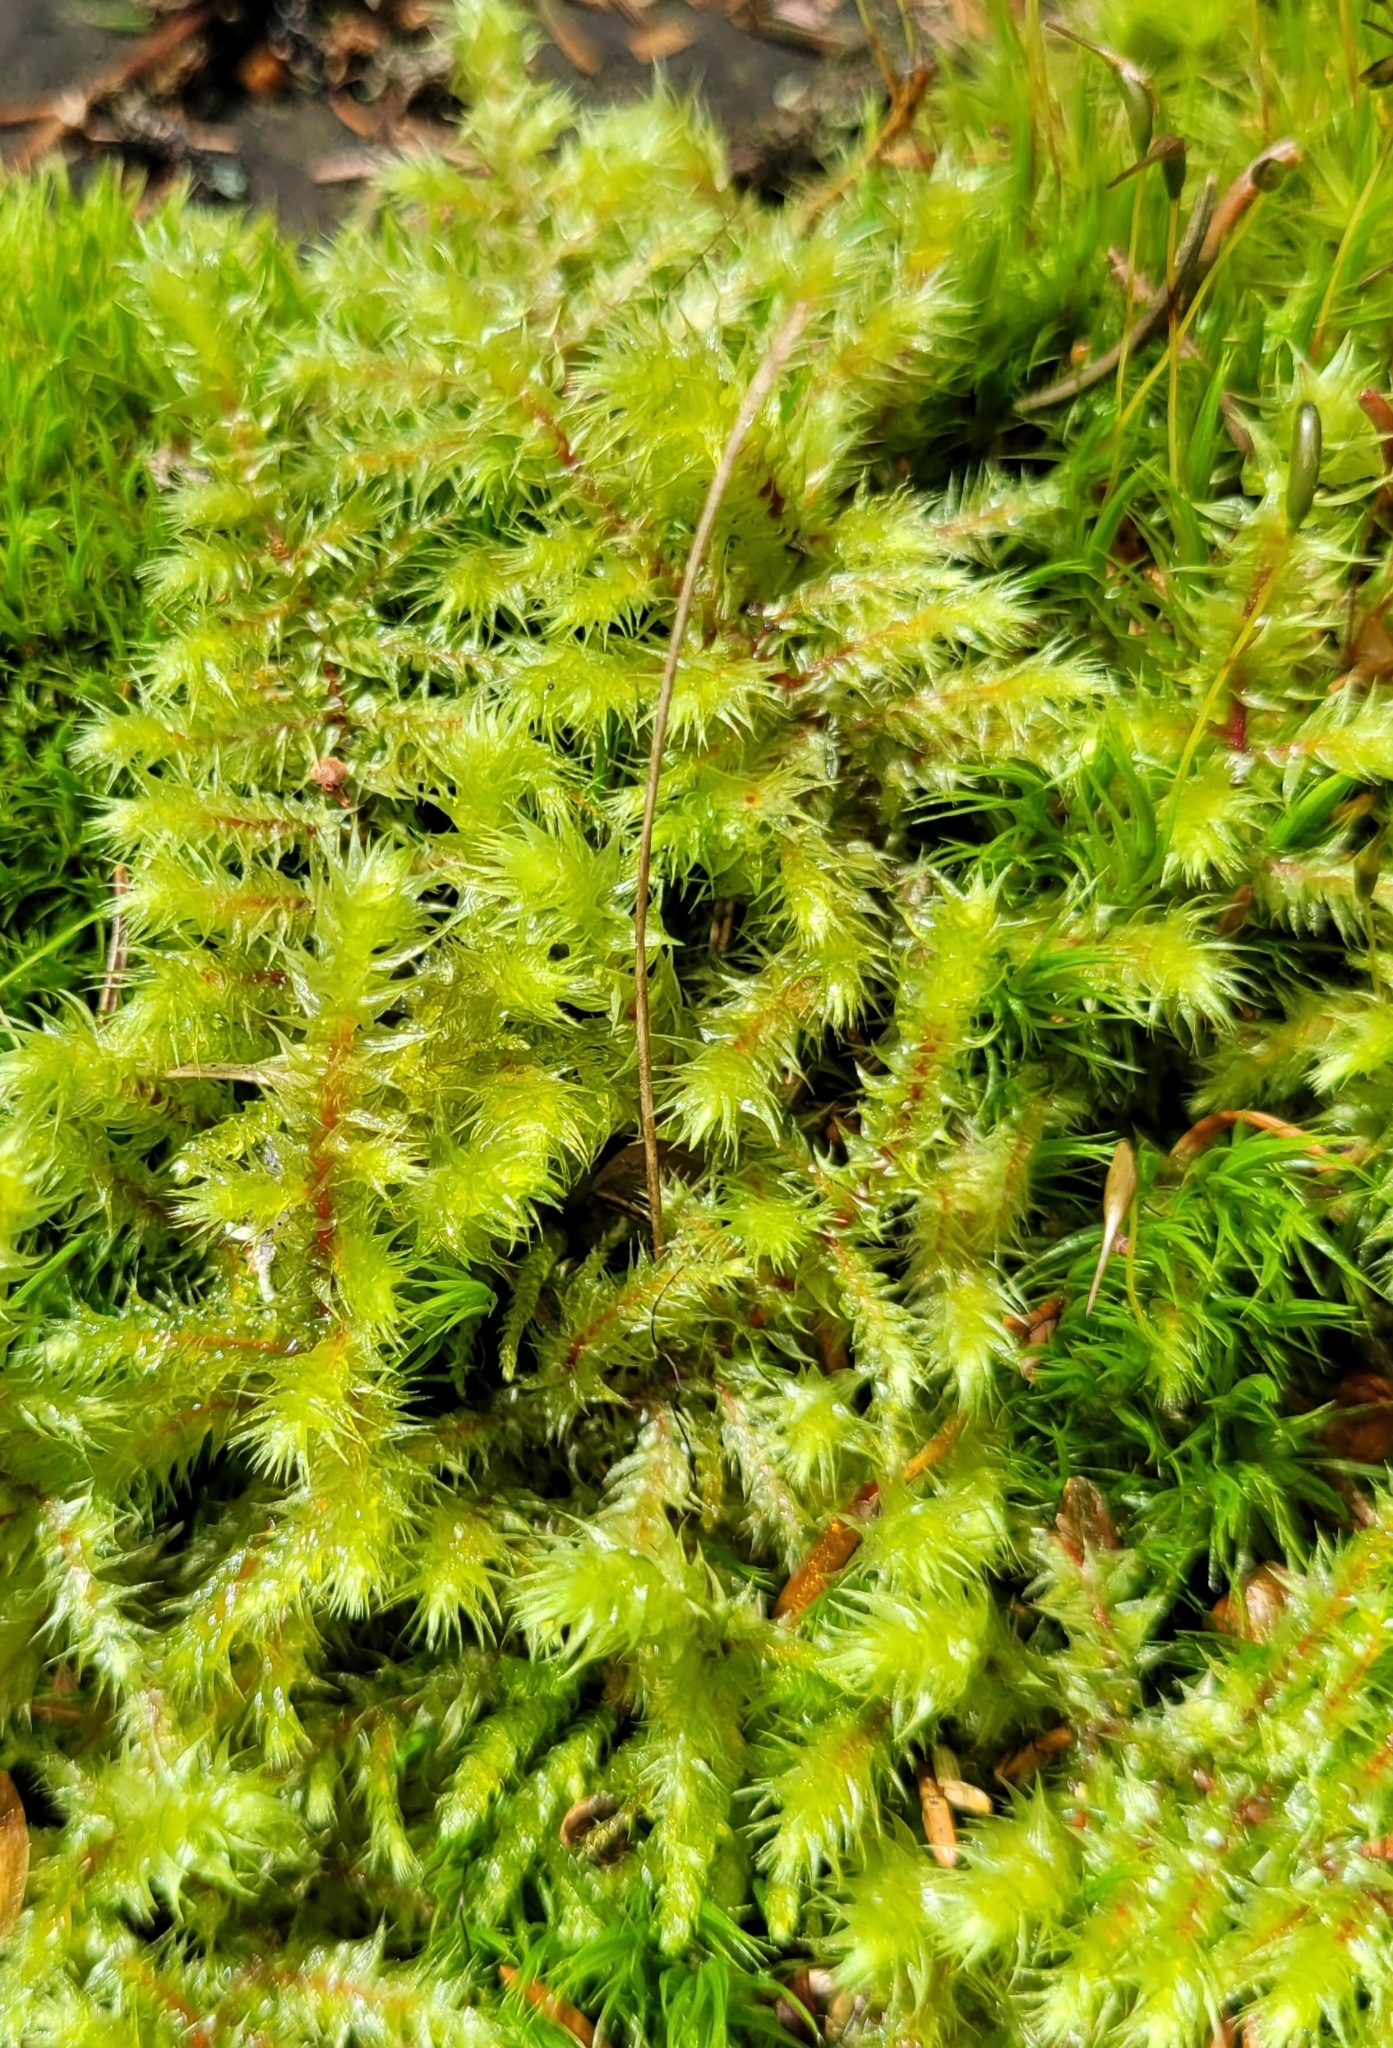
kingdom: Plantae
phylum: Bryophyta
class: Bryopsida
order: Hypnales
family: Hylocomiaceae
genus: Hylocomiadelphus
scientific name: Hylocomiadelphus triquetrus
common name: Rough goose neck moss
